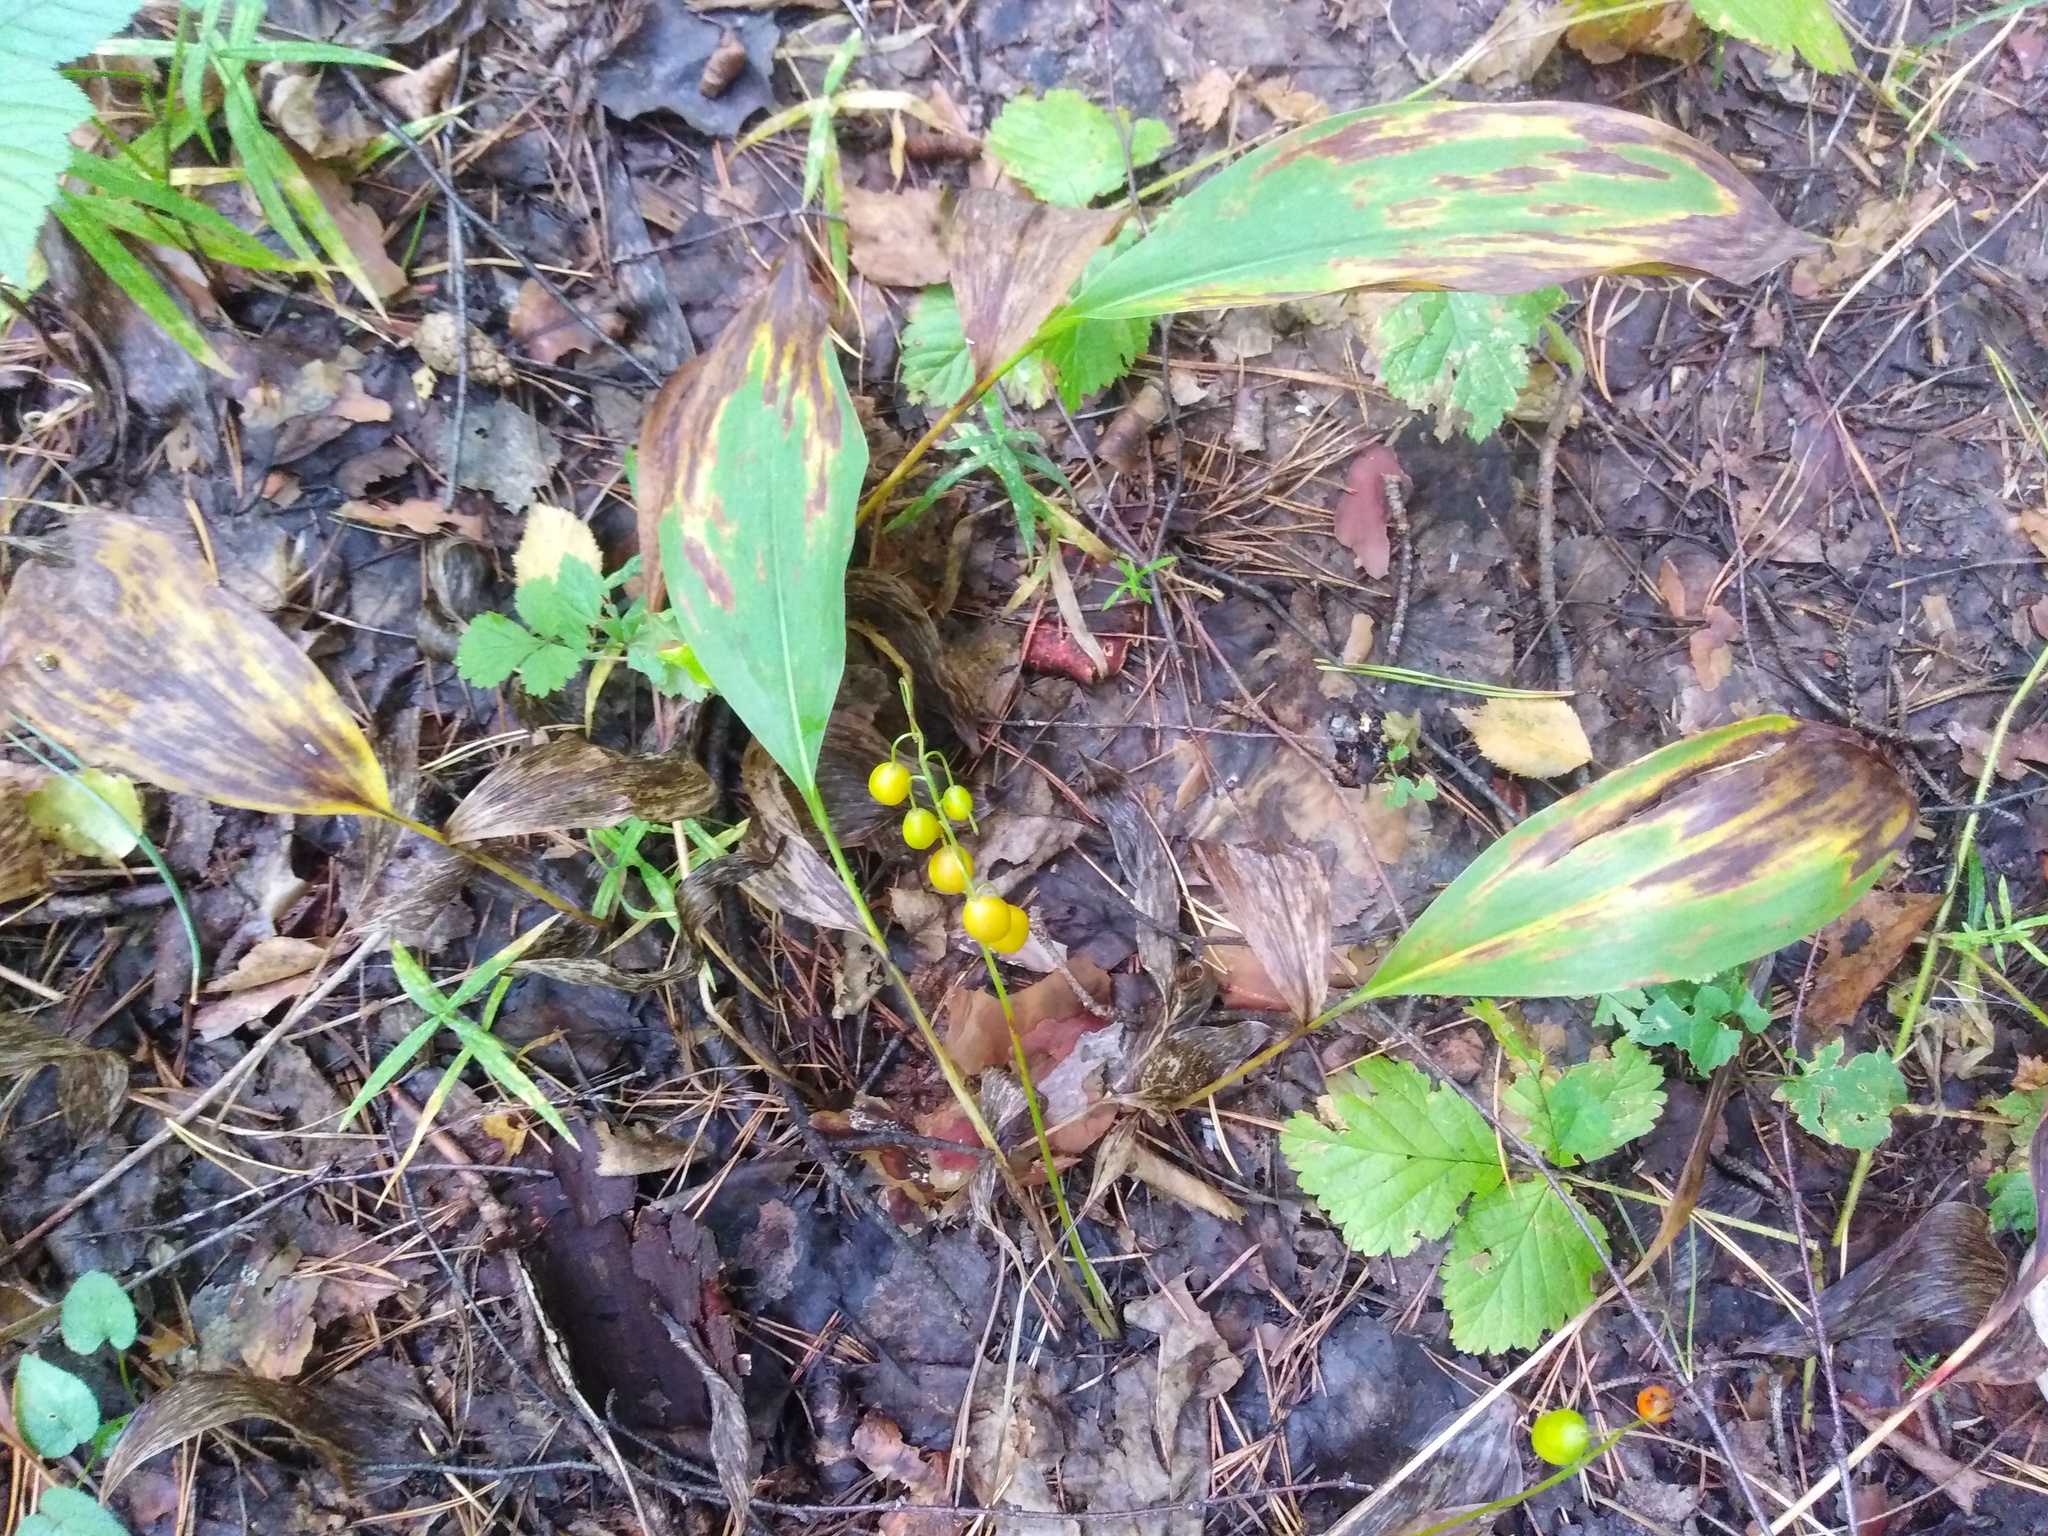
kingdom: Plantae
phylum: Tracheophyta
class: Liliopsida
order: Asparagales
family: Asparagaceae
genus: Convallaria
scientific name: Convallaria majalis
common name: Lily-of-the-valley
